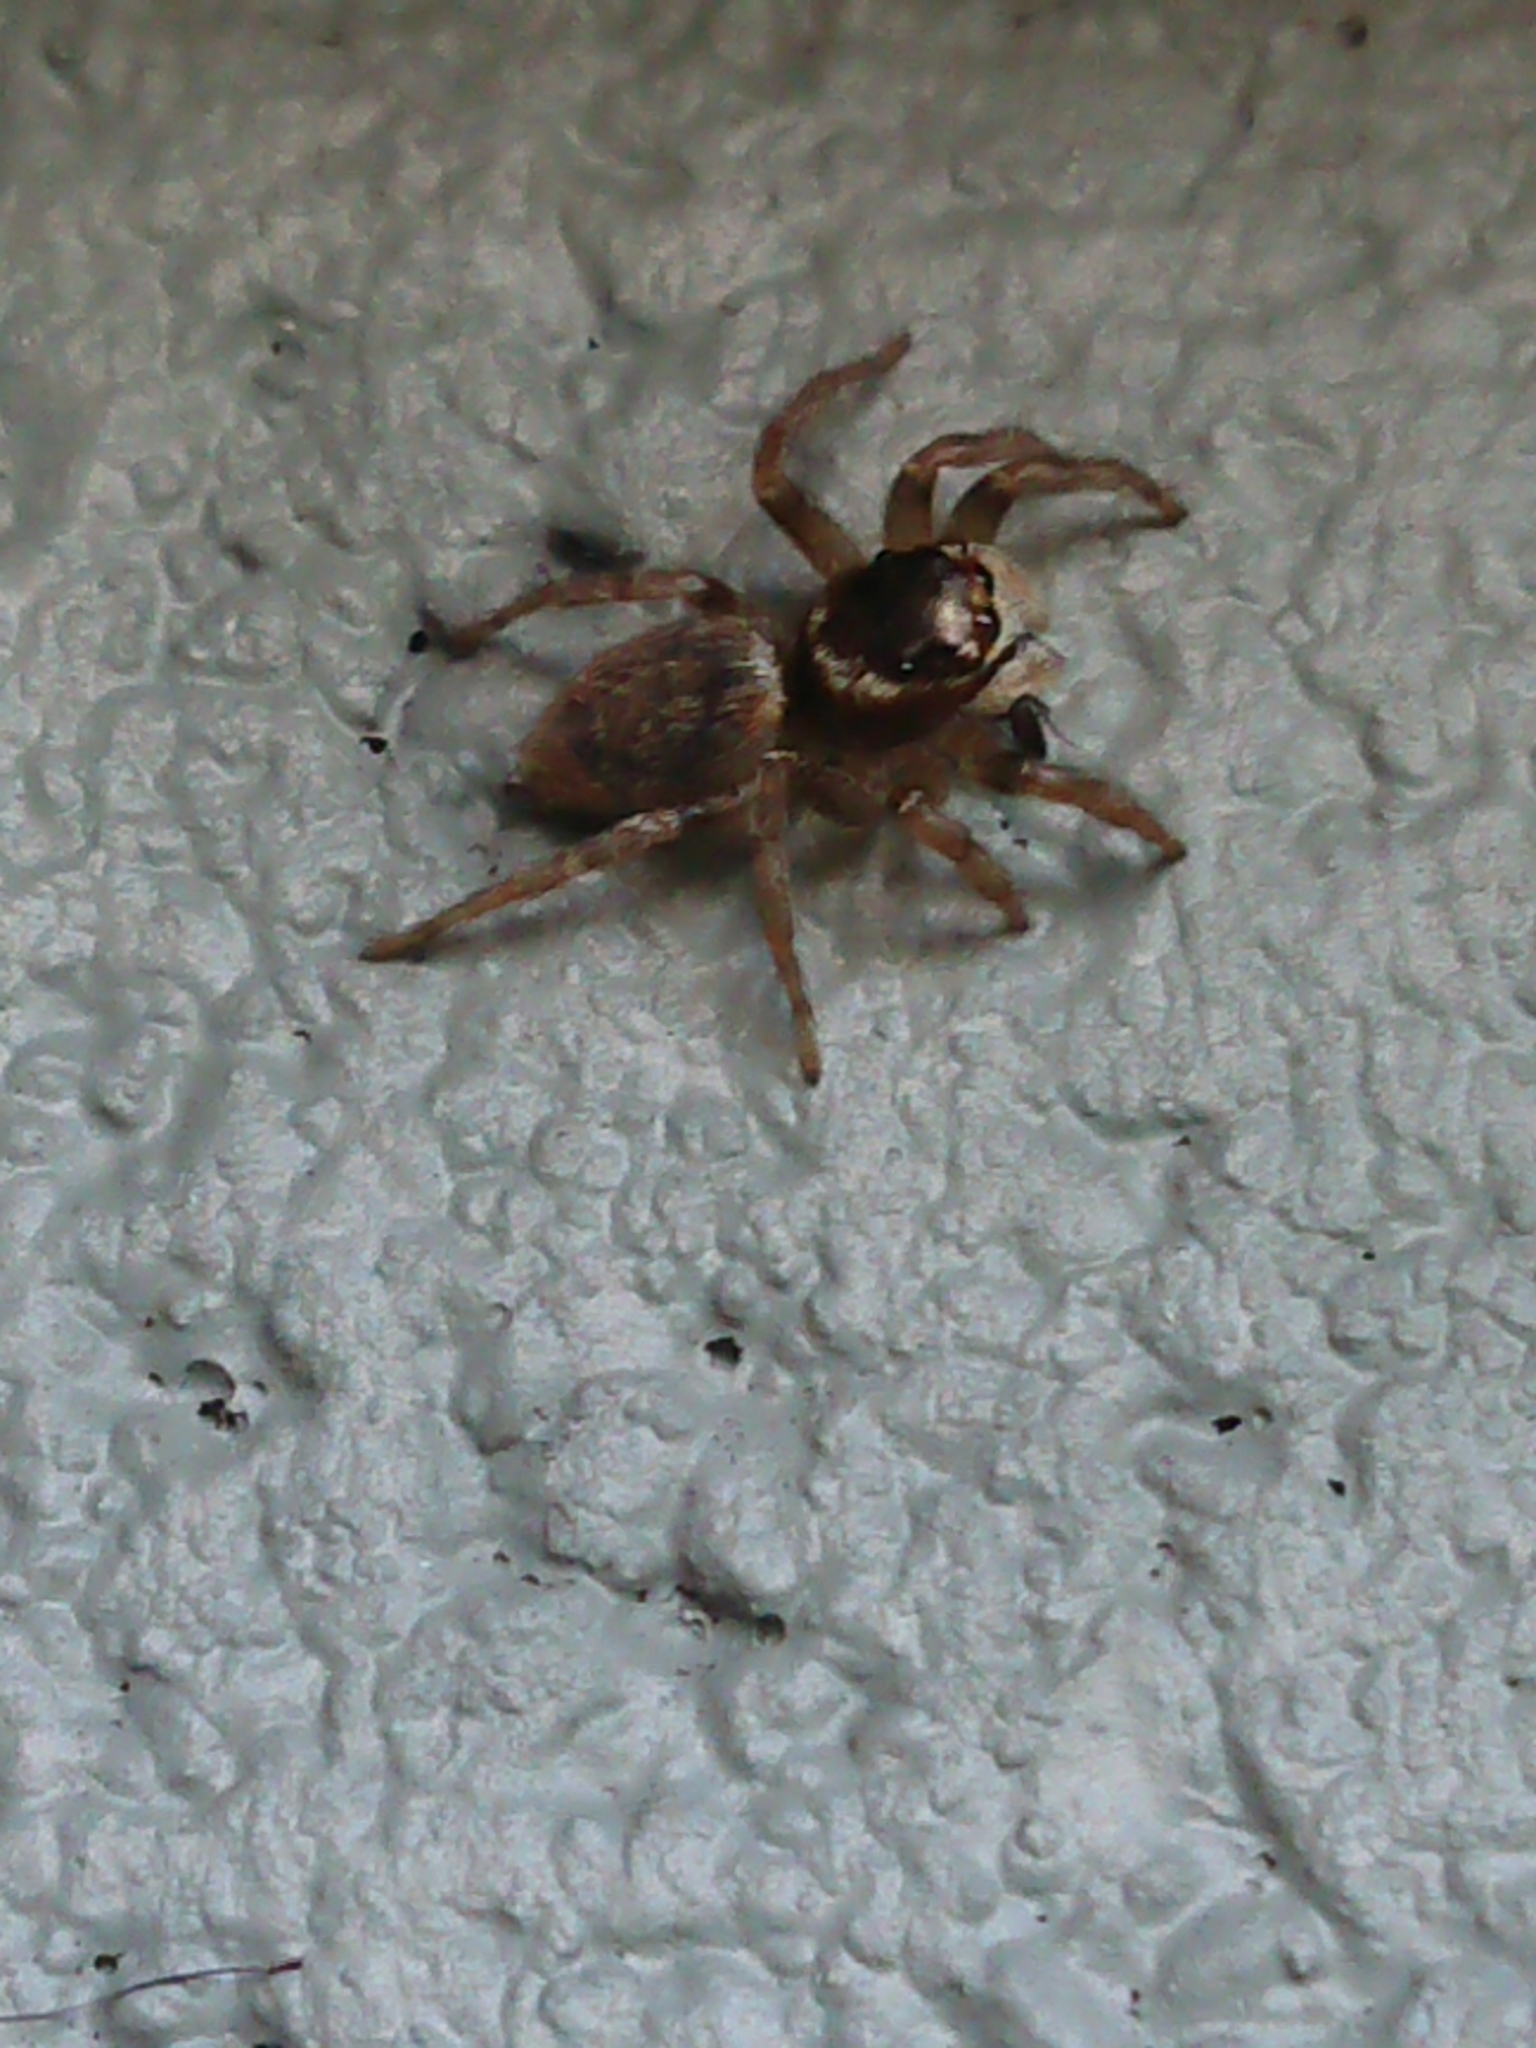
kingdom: Animalia
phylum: Arthropoda
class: Arachnida
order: Araneae
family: Salticidae
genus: Maratus
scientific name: Maratus griseus
